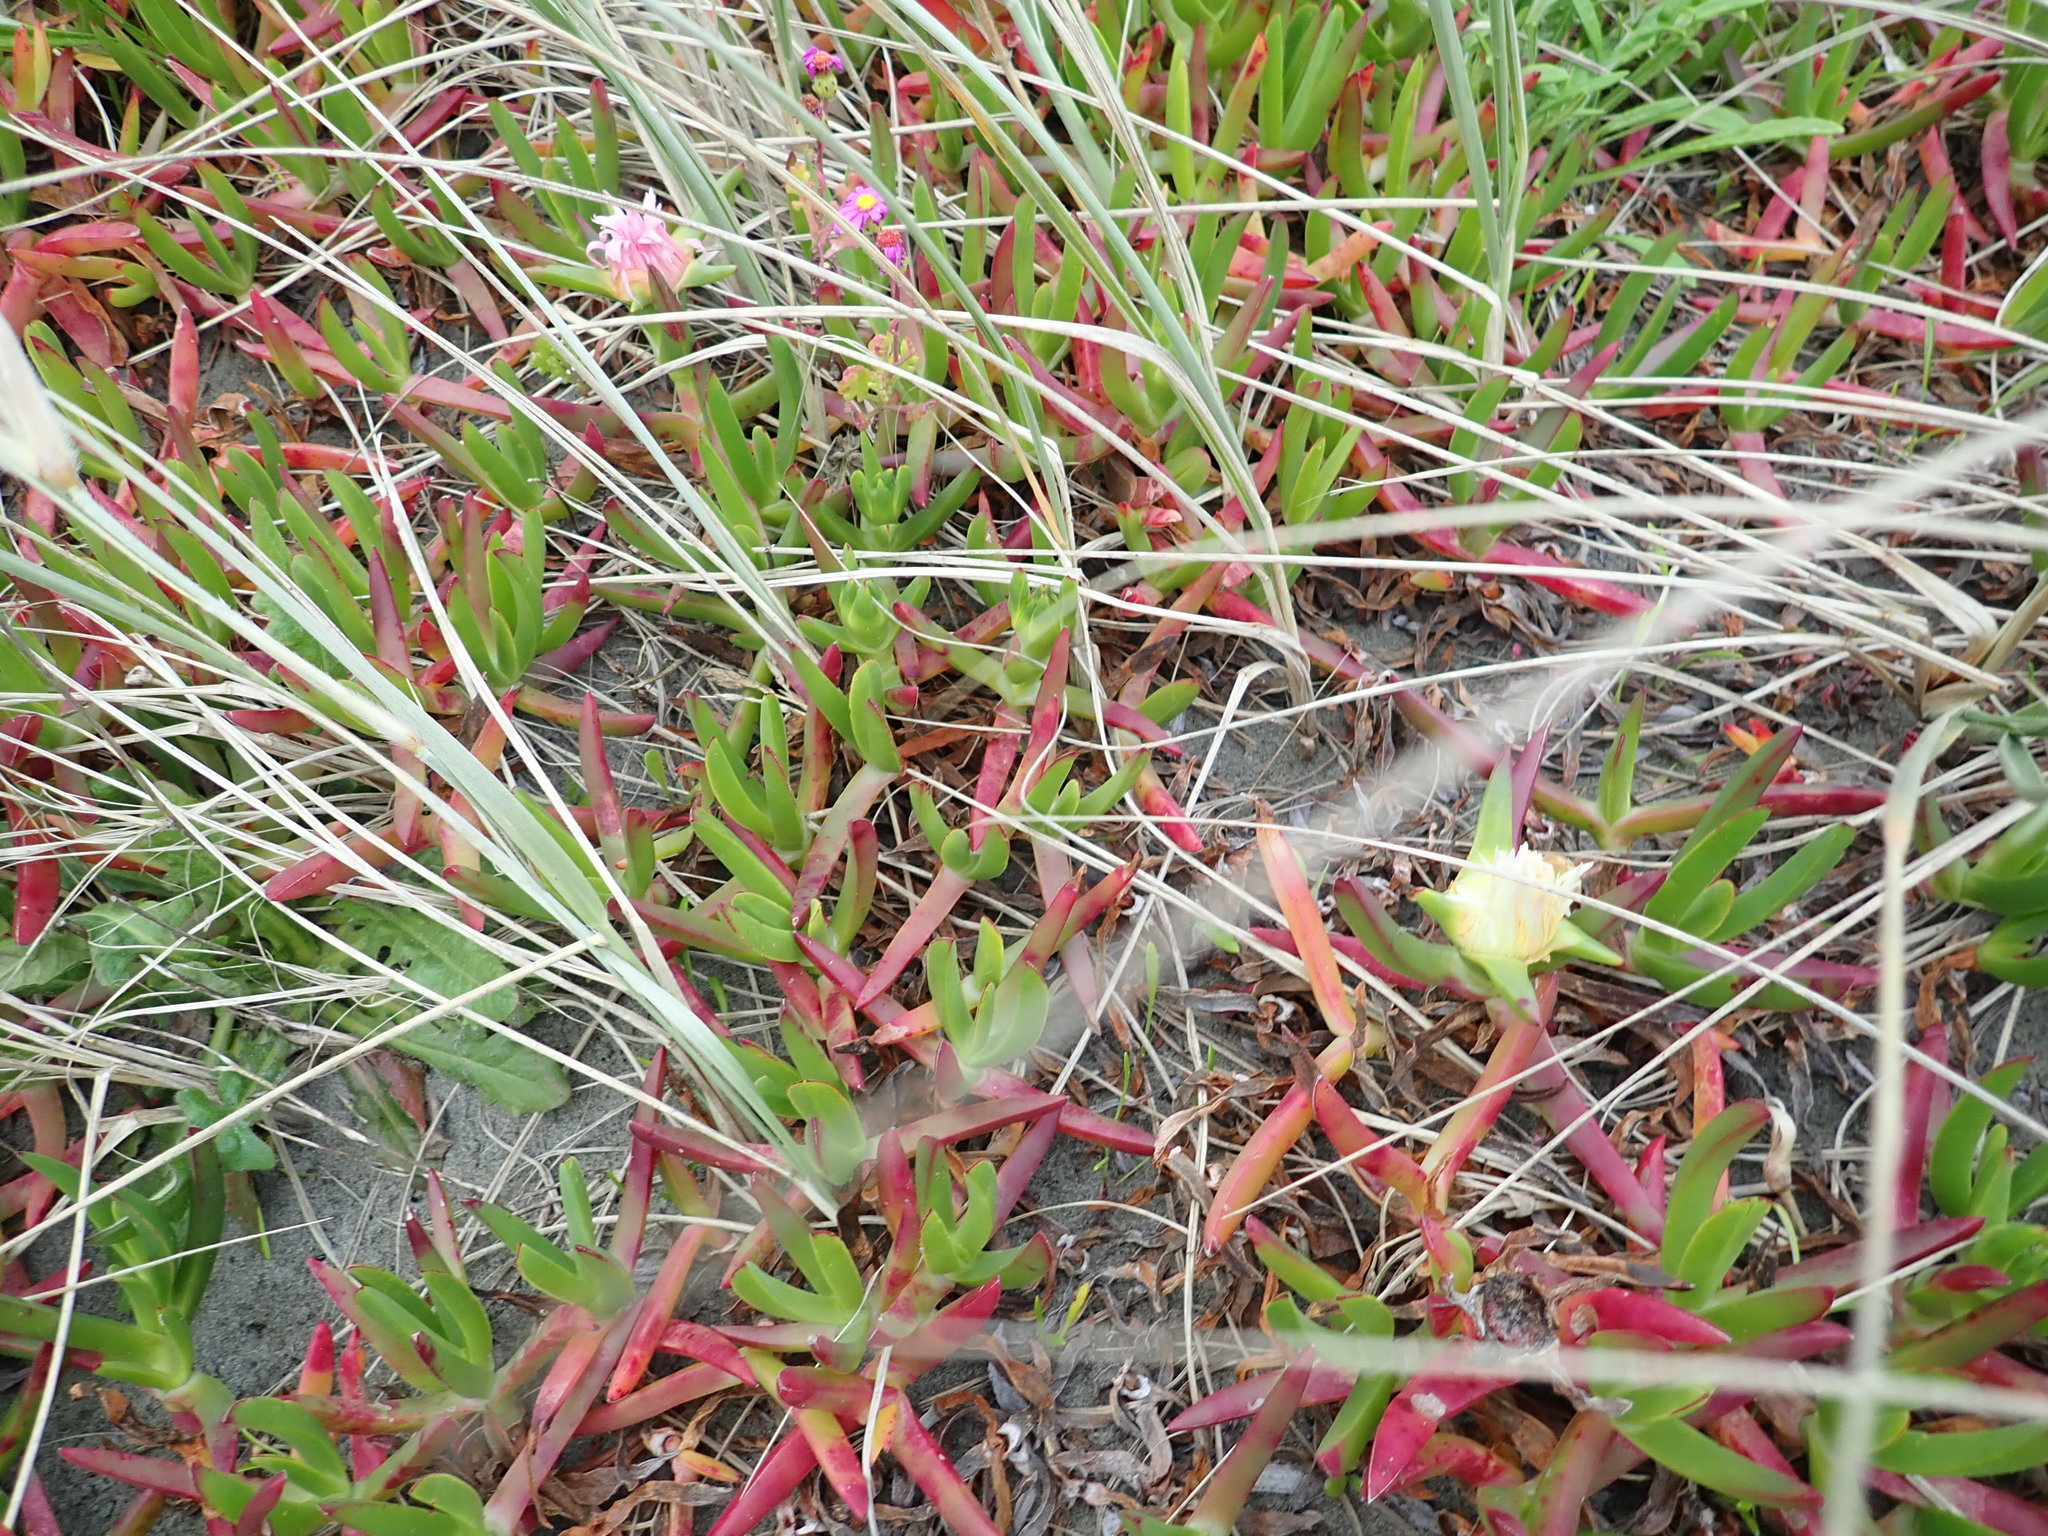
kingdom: Plantae
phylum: Tracheophyta
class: Magnoliopsida
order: Caryophyllales
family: Aizoaceae
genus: Carpobrotus
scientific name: Carpobrotus edulis
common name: Hottentot-fig
